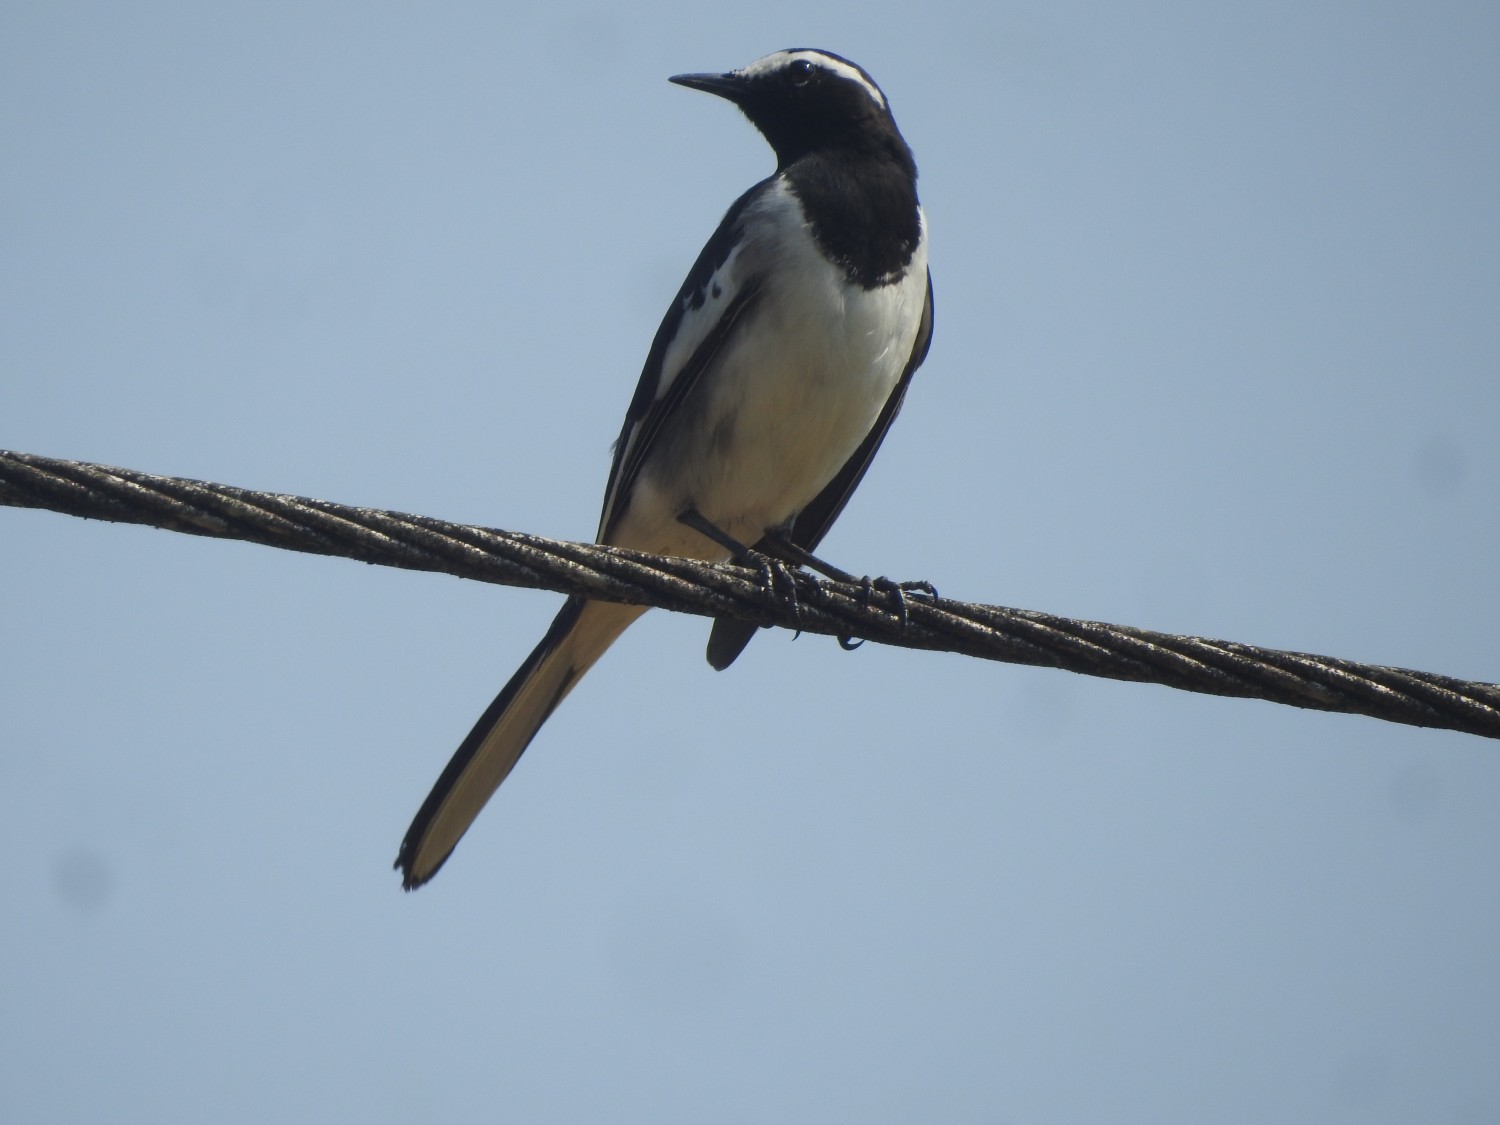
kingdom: Animalia
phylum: Chordata
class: Aves
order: Passeriformes
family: Motacillidae
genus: Motacilla
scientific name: Motacilla maderaspatensis
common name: White-browed wagtail
